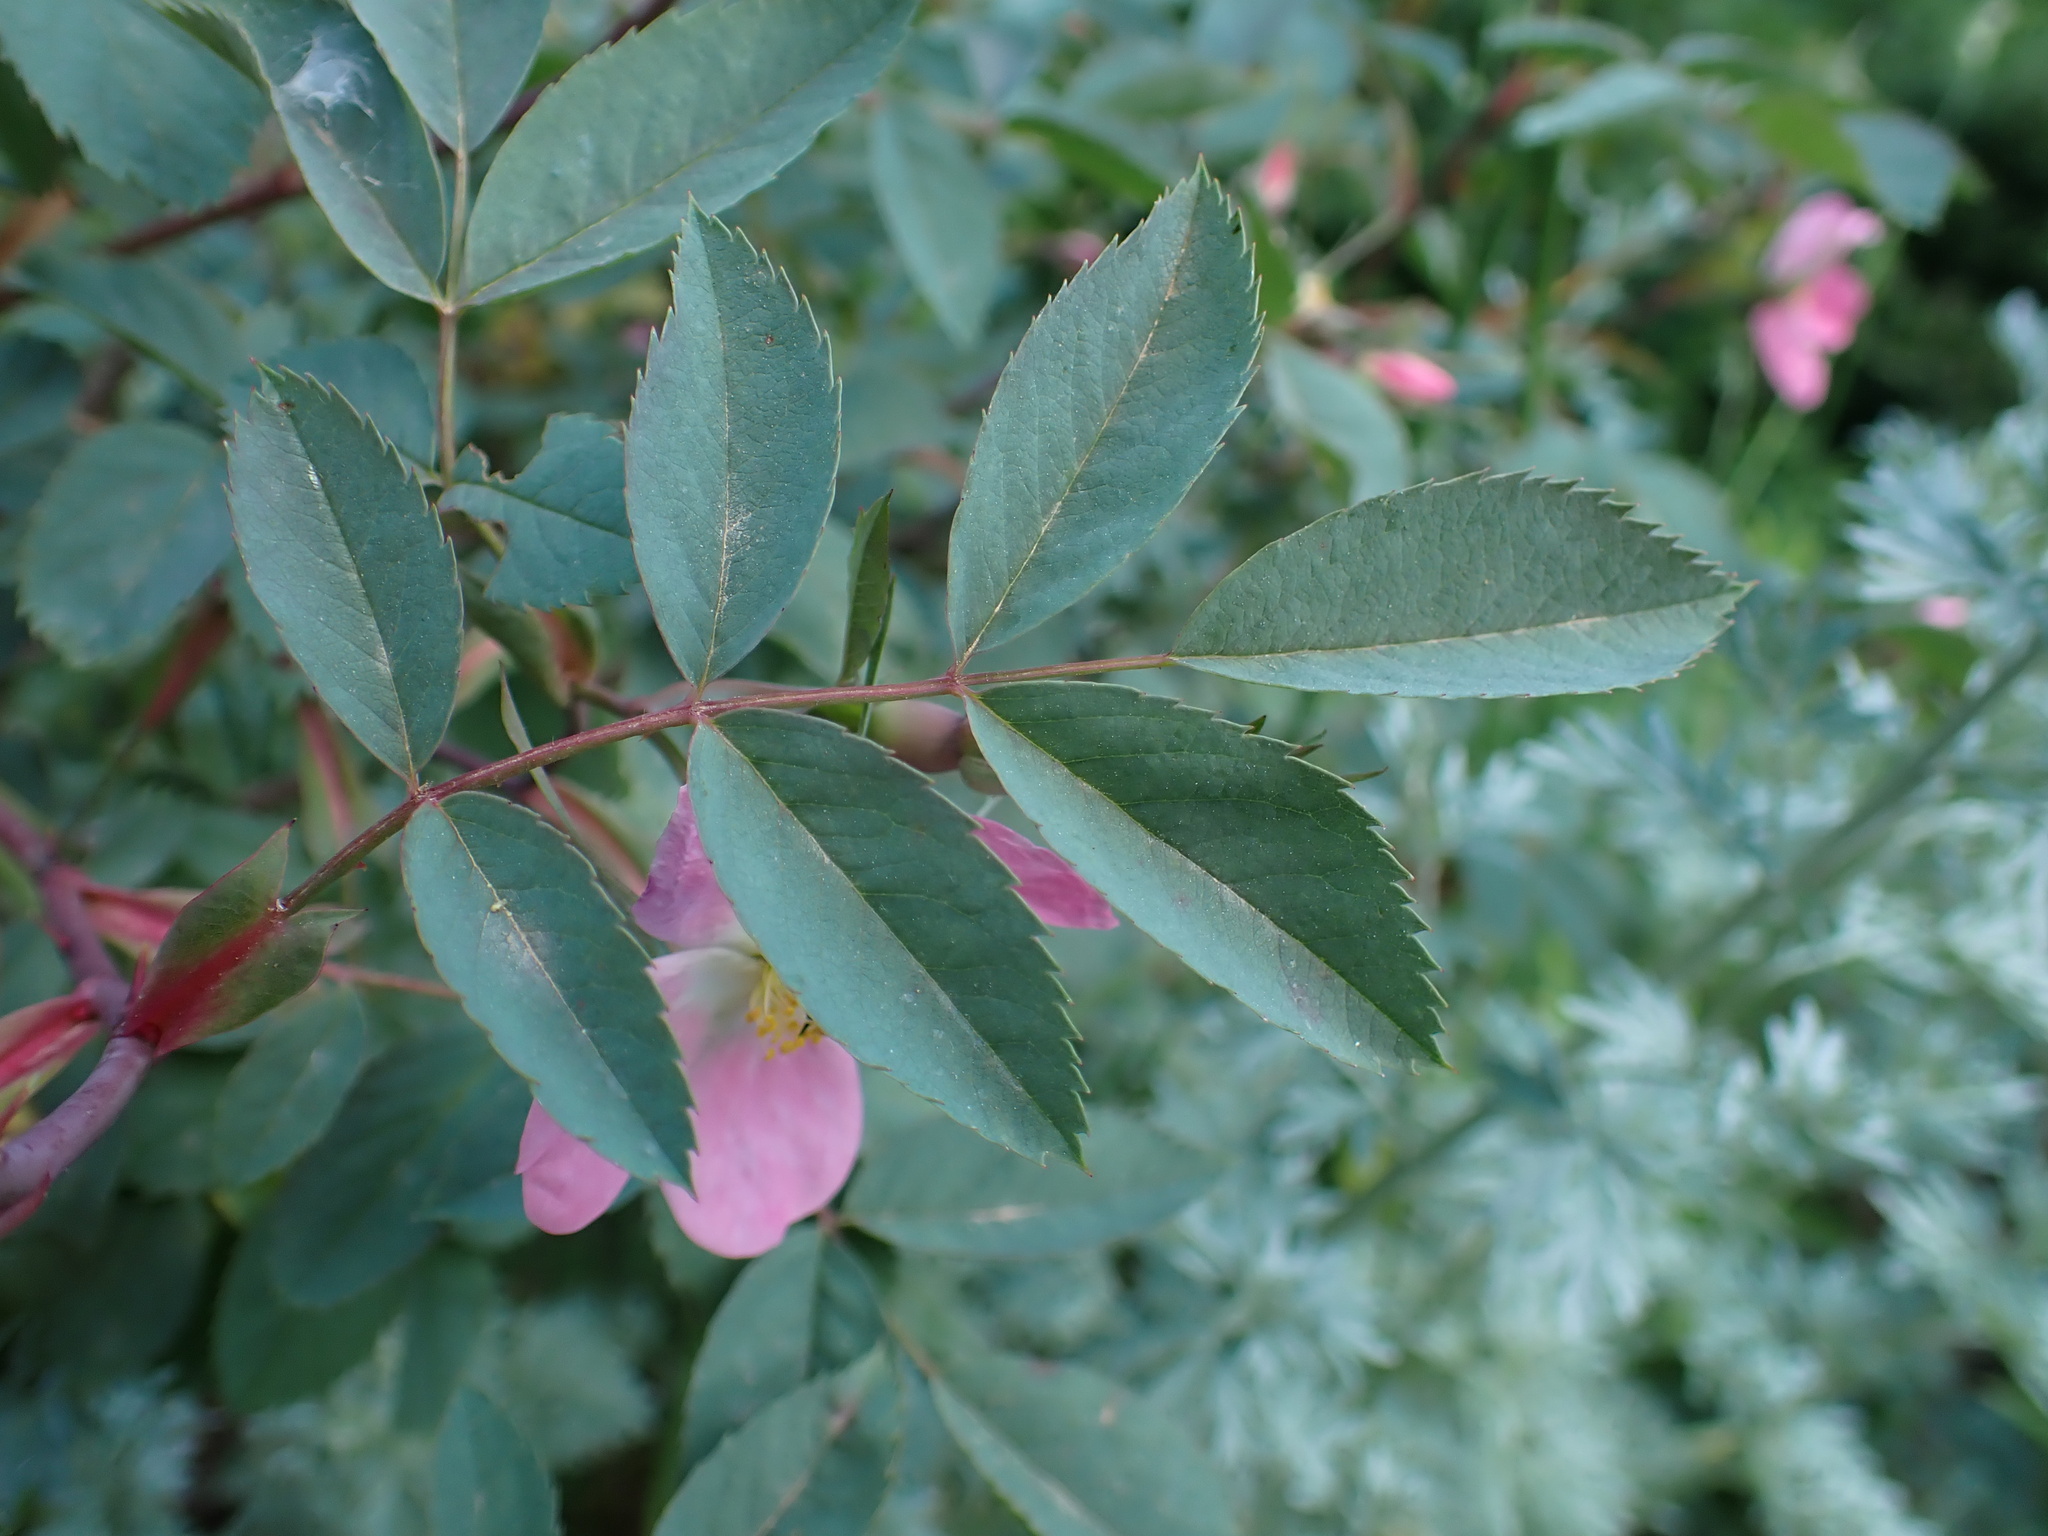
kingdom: Plantae
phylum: Tracheophyta
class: Magnoliopsida
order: Rosales
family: Rosaceae
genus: Rosa
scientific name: Rosa glauca
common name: Redleaf rose
